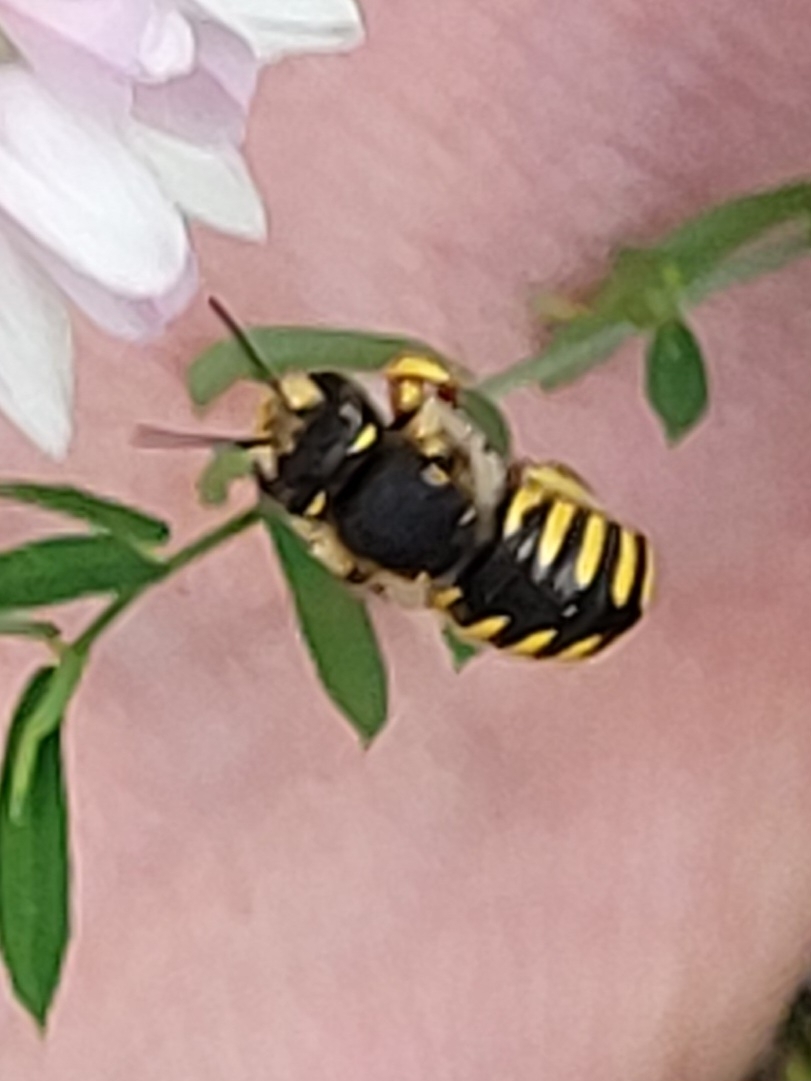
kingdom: Animalia
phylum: Arthropoda
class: Insecta
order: Hymenoptera
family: Megachilidae
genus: Anthidium
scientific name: Anthidium manicatum
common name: Wool carder bee
